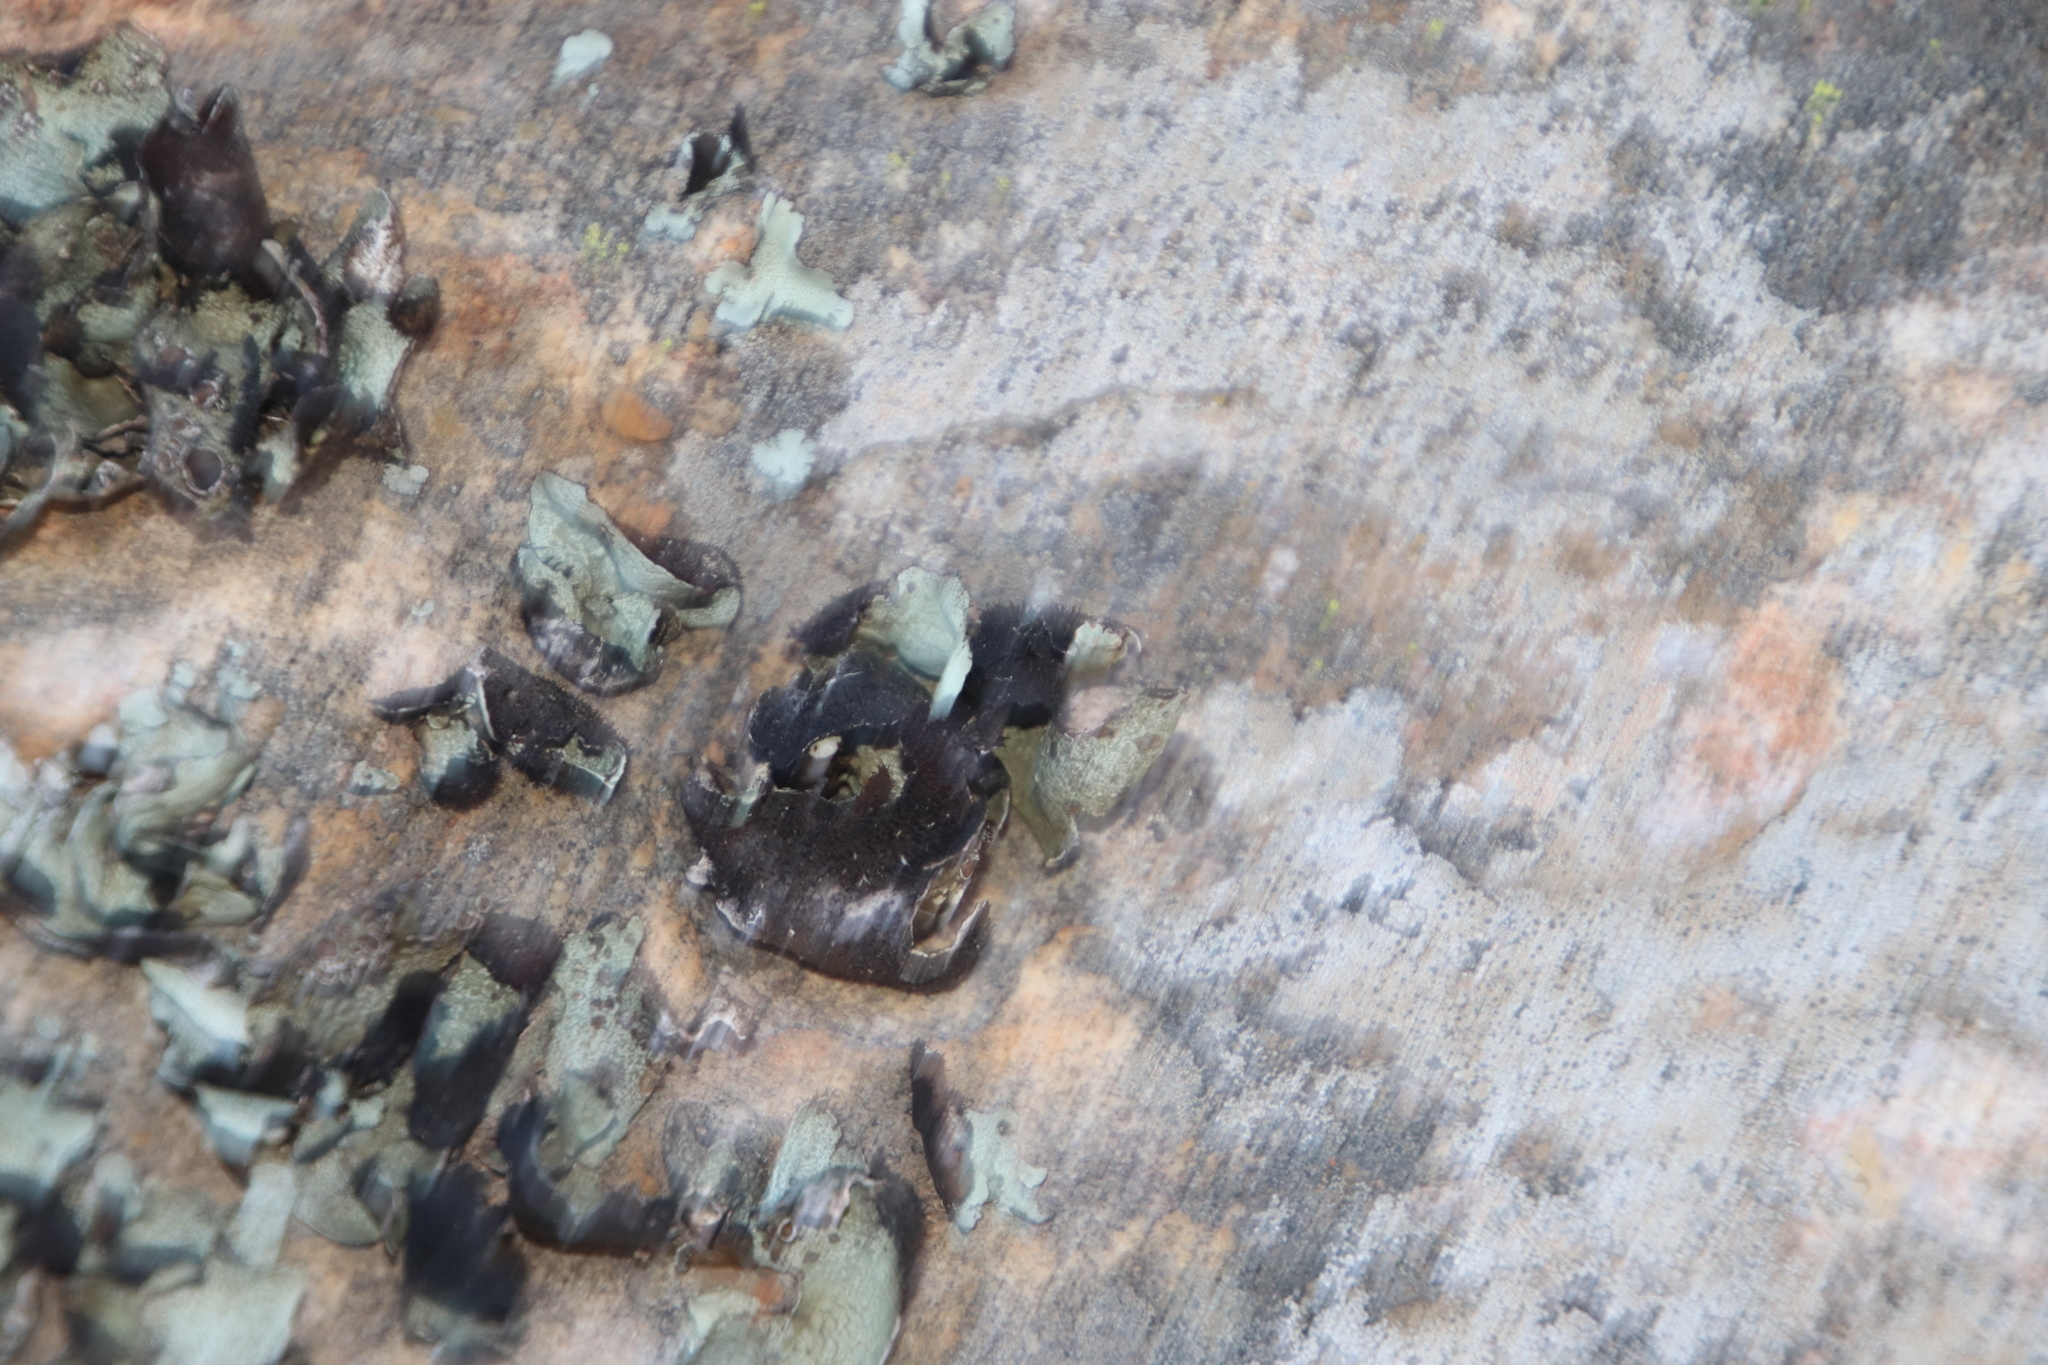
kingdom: Fungi
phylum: Ascomycota
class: Lecanoromycetes
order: Lecanorales
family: Parmeliaceae
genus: Xanthoparmelia
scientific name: Xanthoparmelia hottentotta
